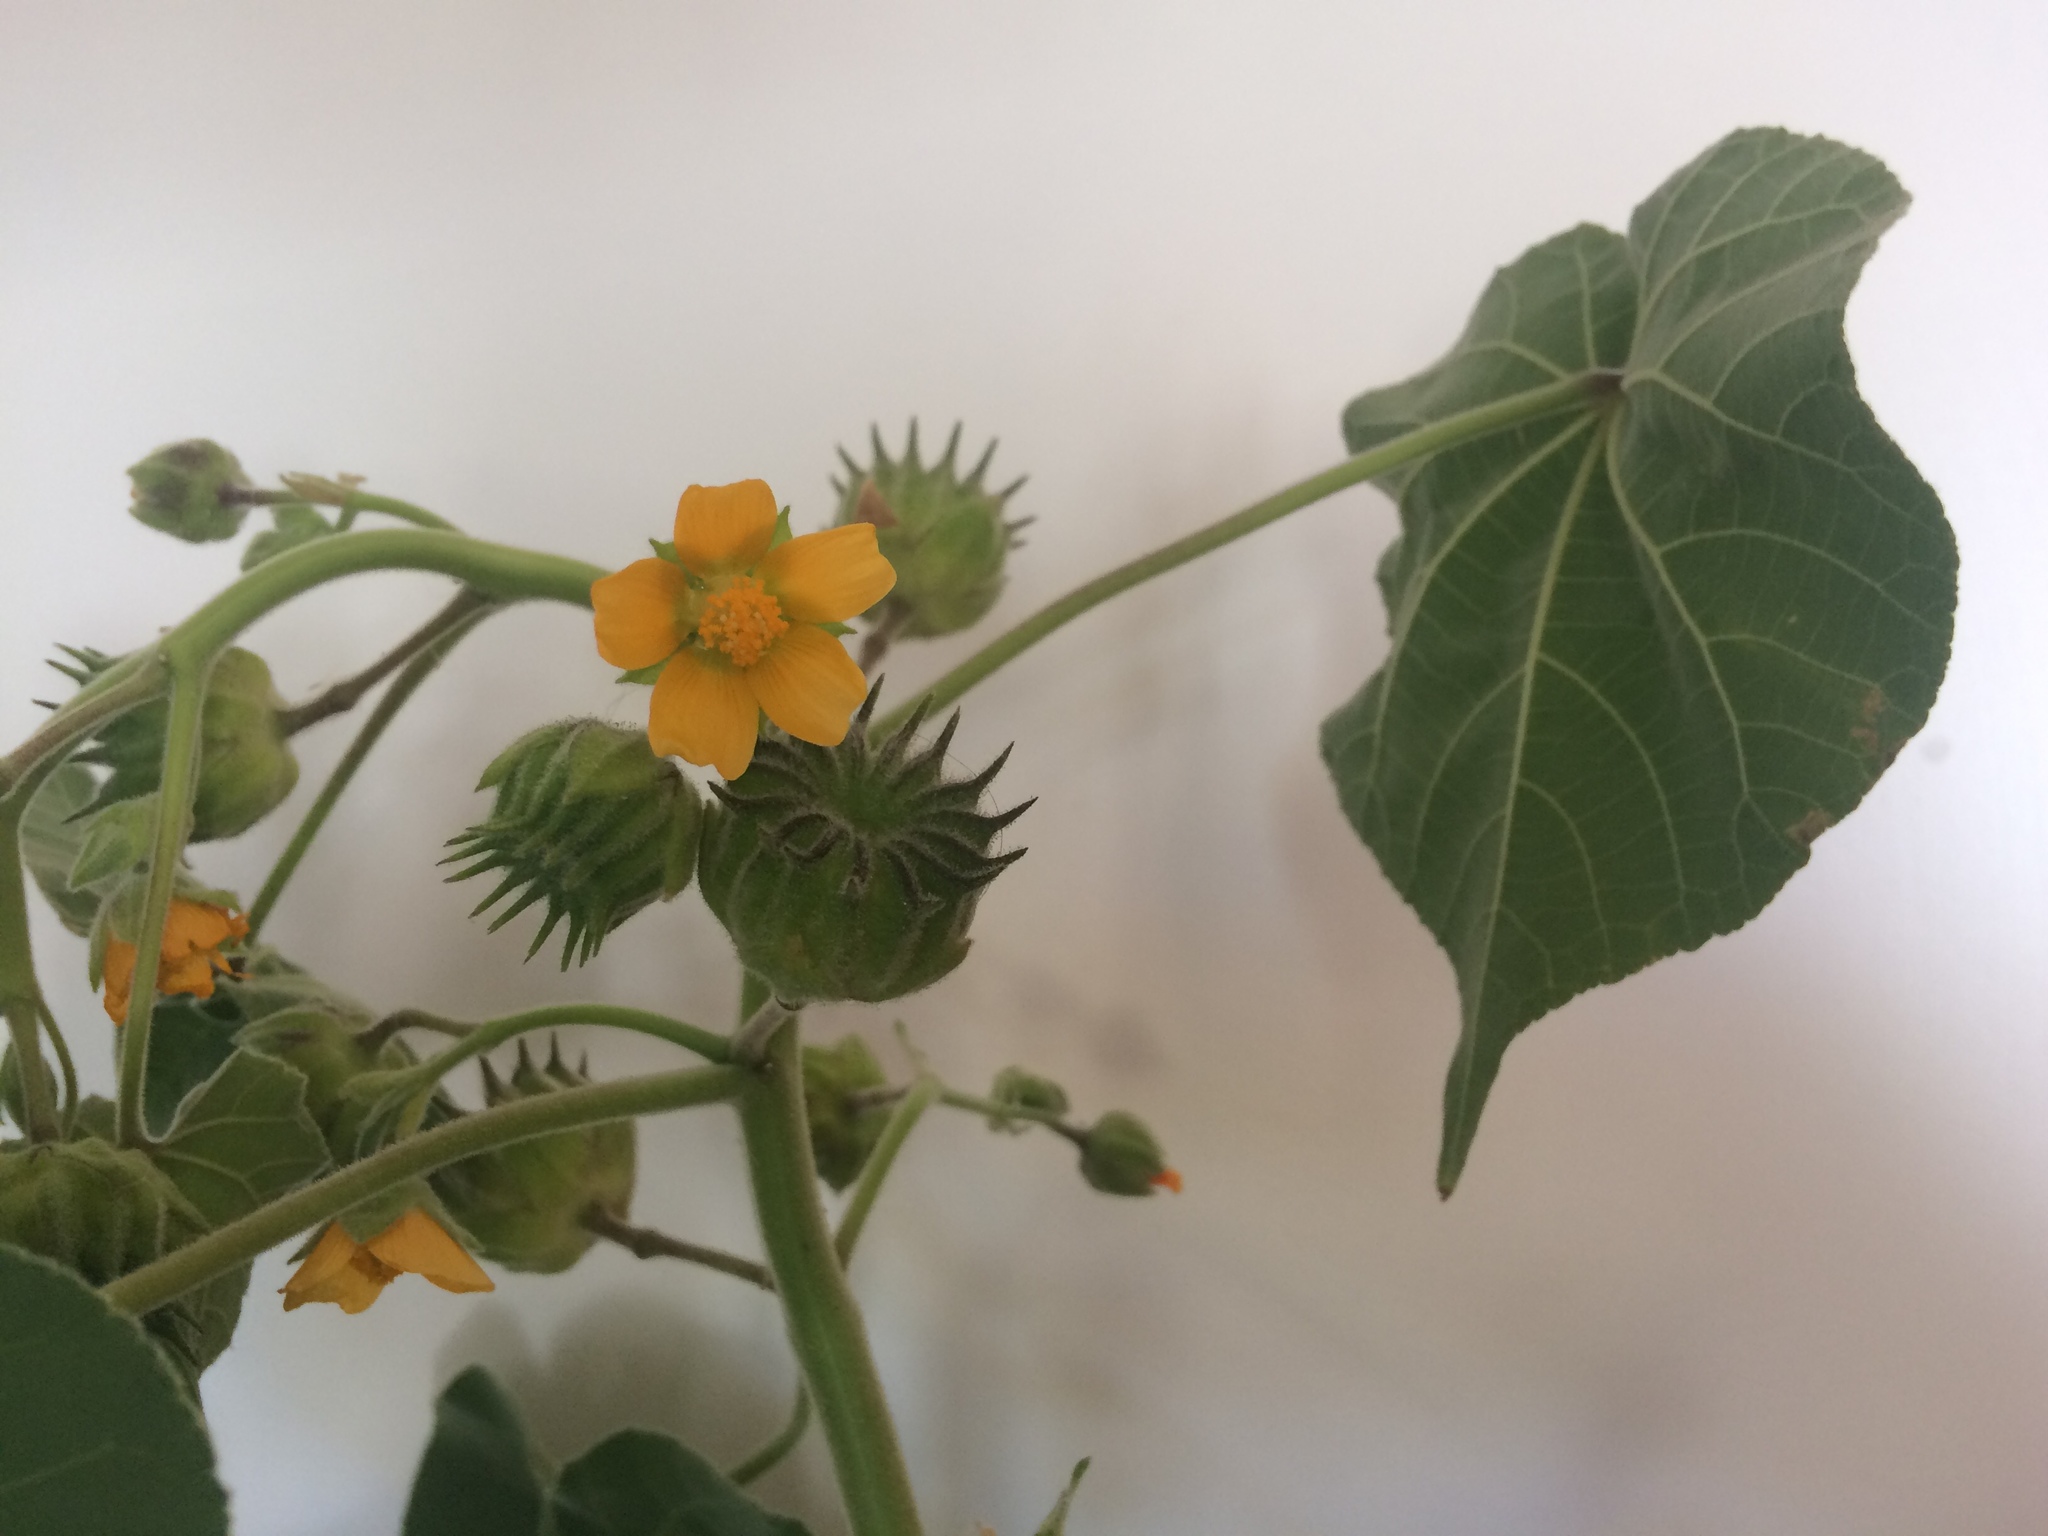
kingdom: Plantae
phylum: Tracheophyta
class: Magnoliopsida
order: Malvales
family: Malvaceae
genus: Abutilon
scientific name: Abutilon theophrasti
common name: Velvetleaf
